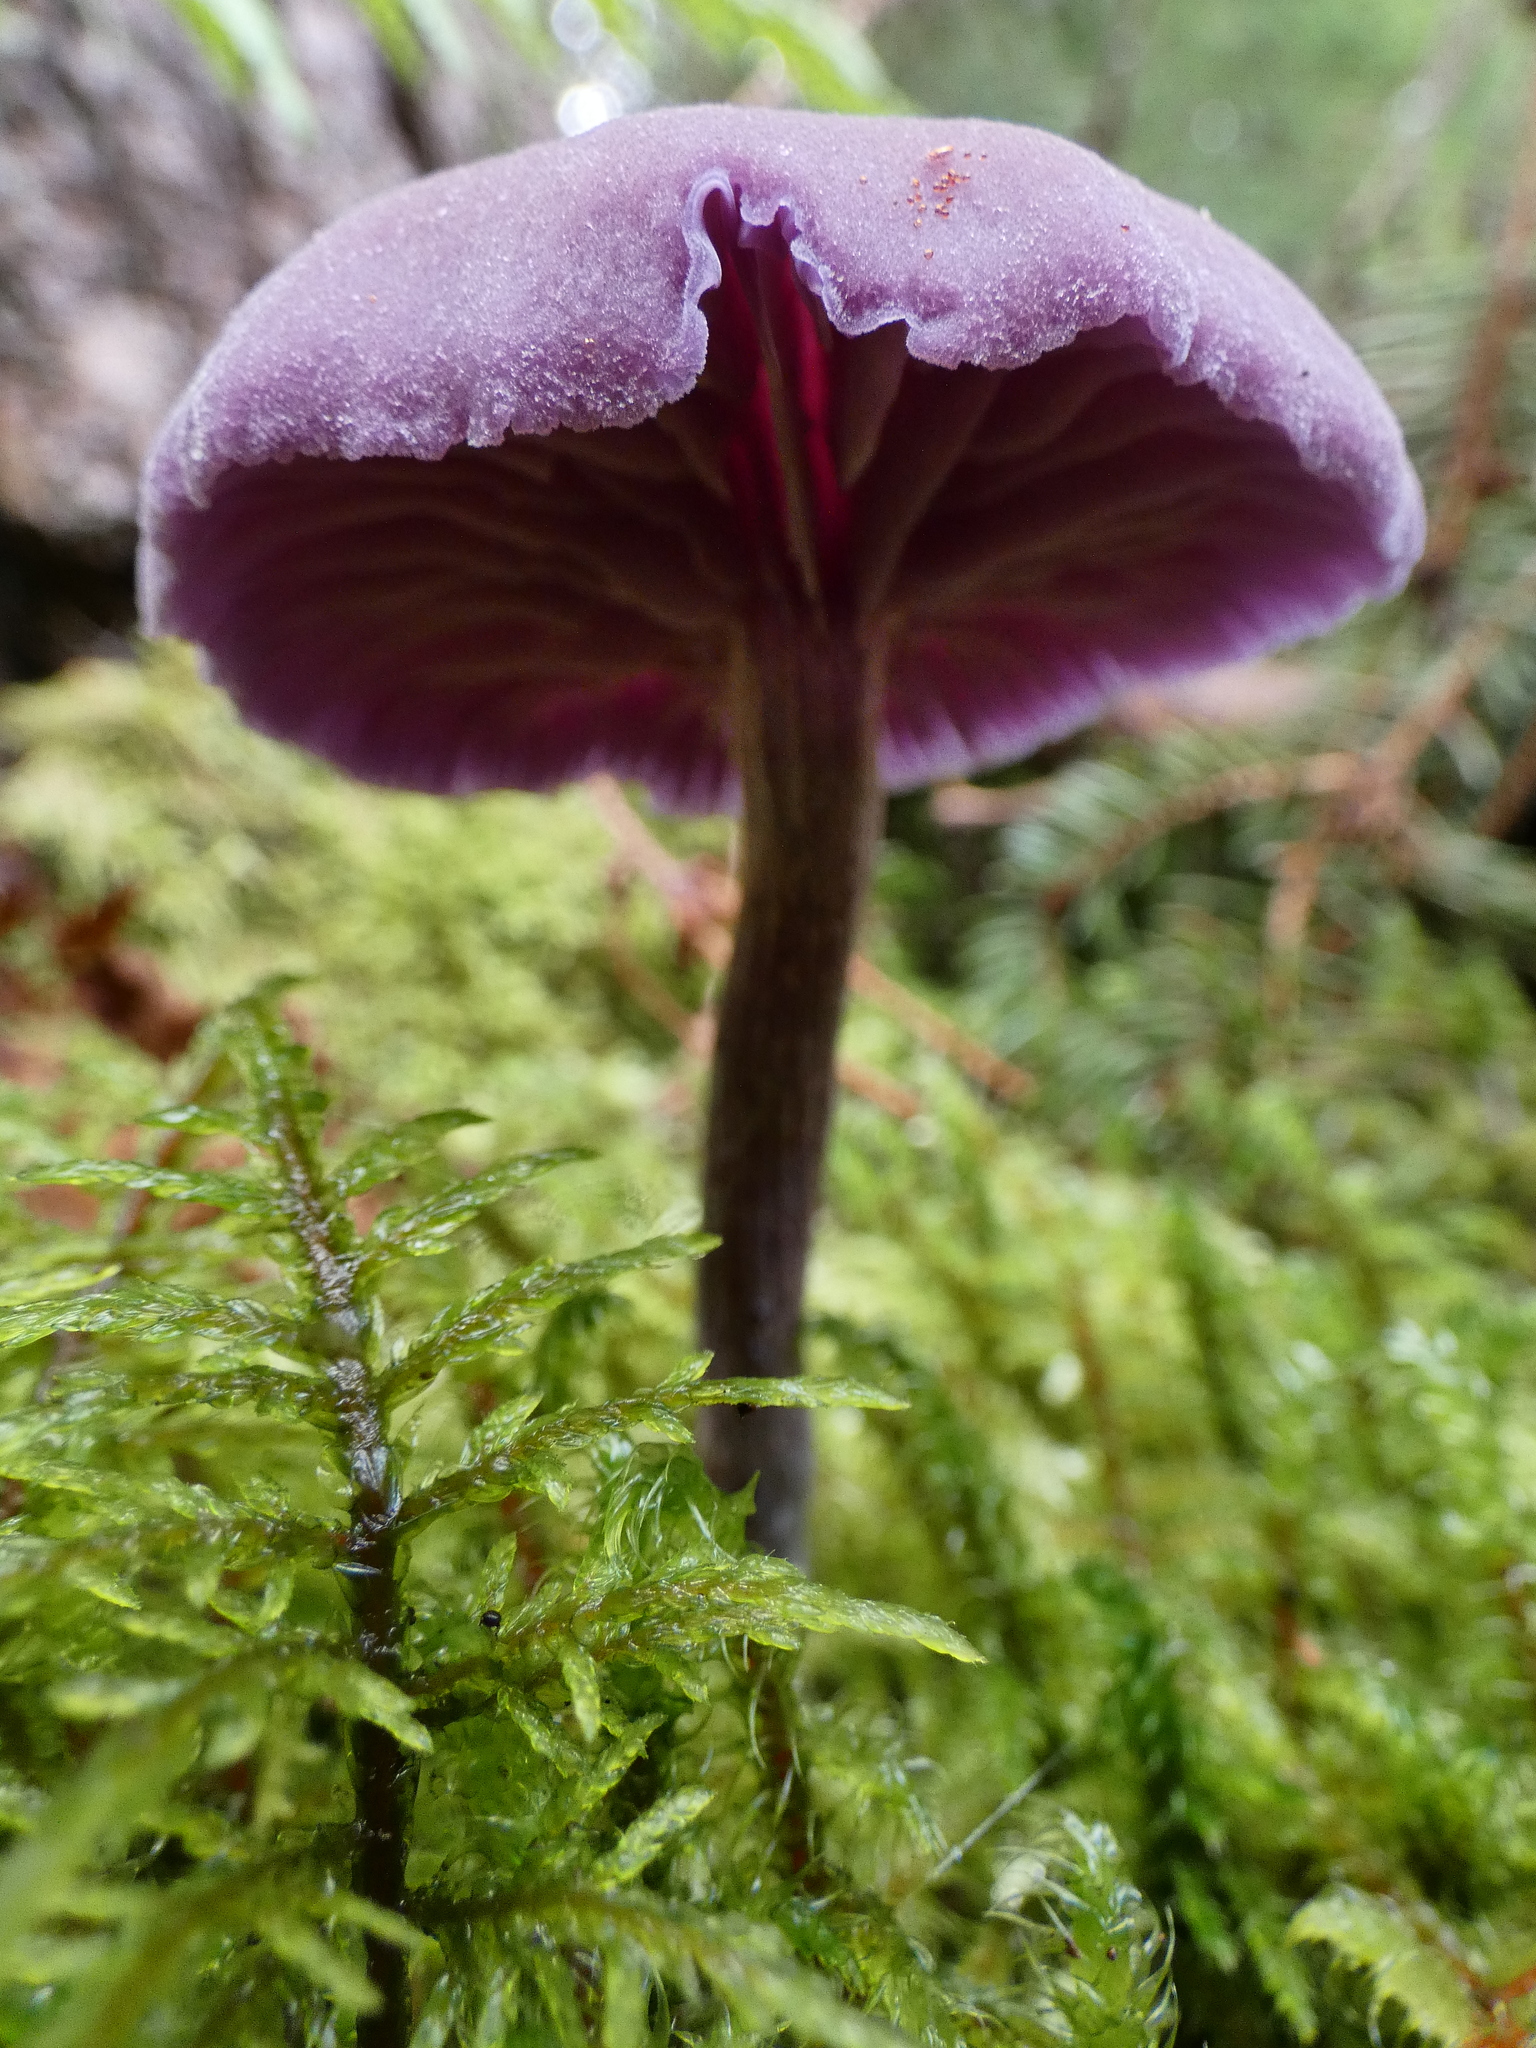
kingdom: Fungi
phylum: Basidiomycota
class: Agaricomycetes
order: Agaricales
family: Hydnangiaceae
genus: Laccaria
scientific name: Laccaria amethystina
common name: Amethyst deceiver
